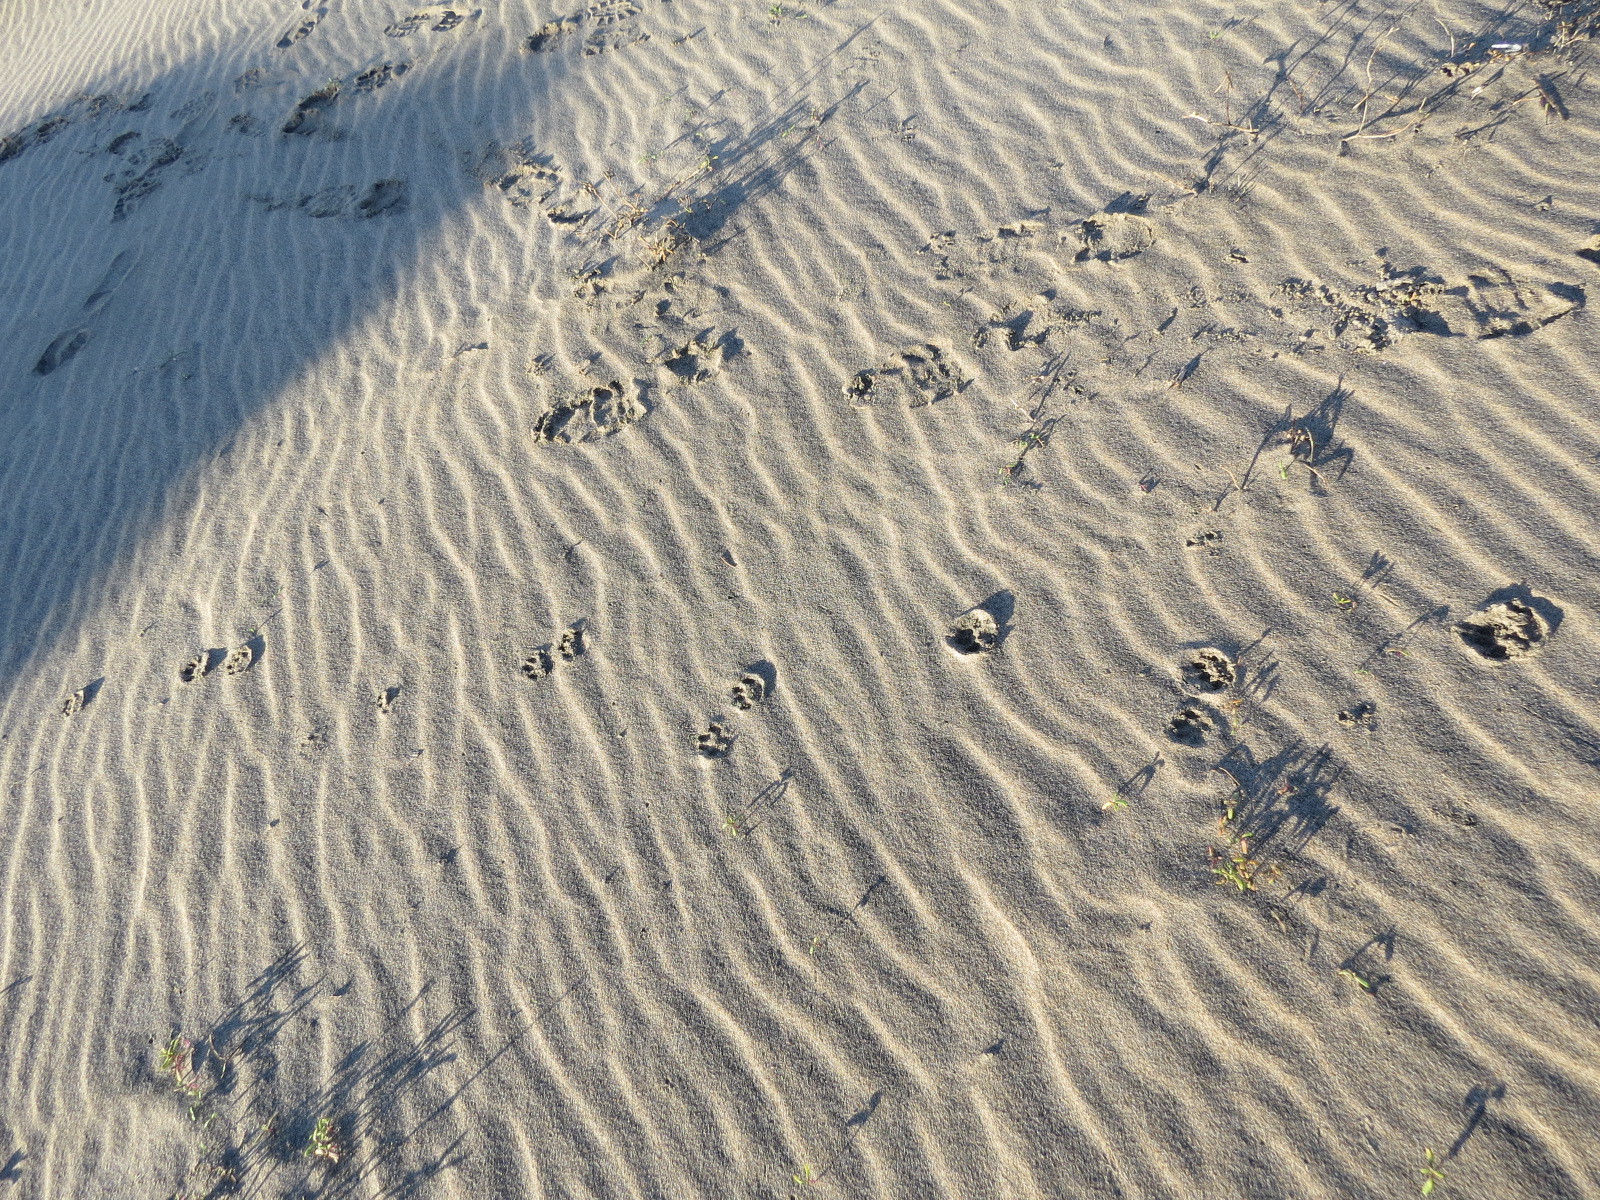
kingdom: Animalia
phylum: Chordata
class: Mammalia
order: Carnivora
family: Felidae
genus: Lynx
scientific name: Lynx rufus
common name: Bobcat
